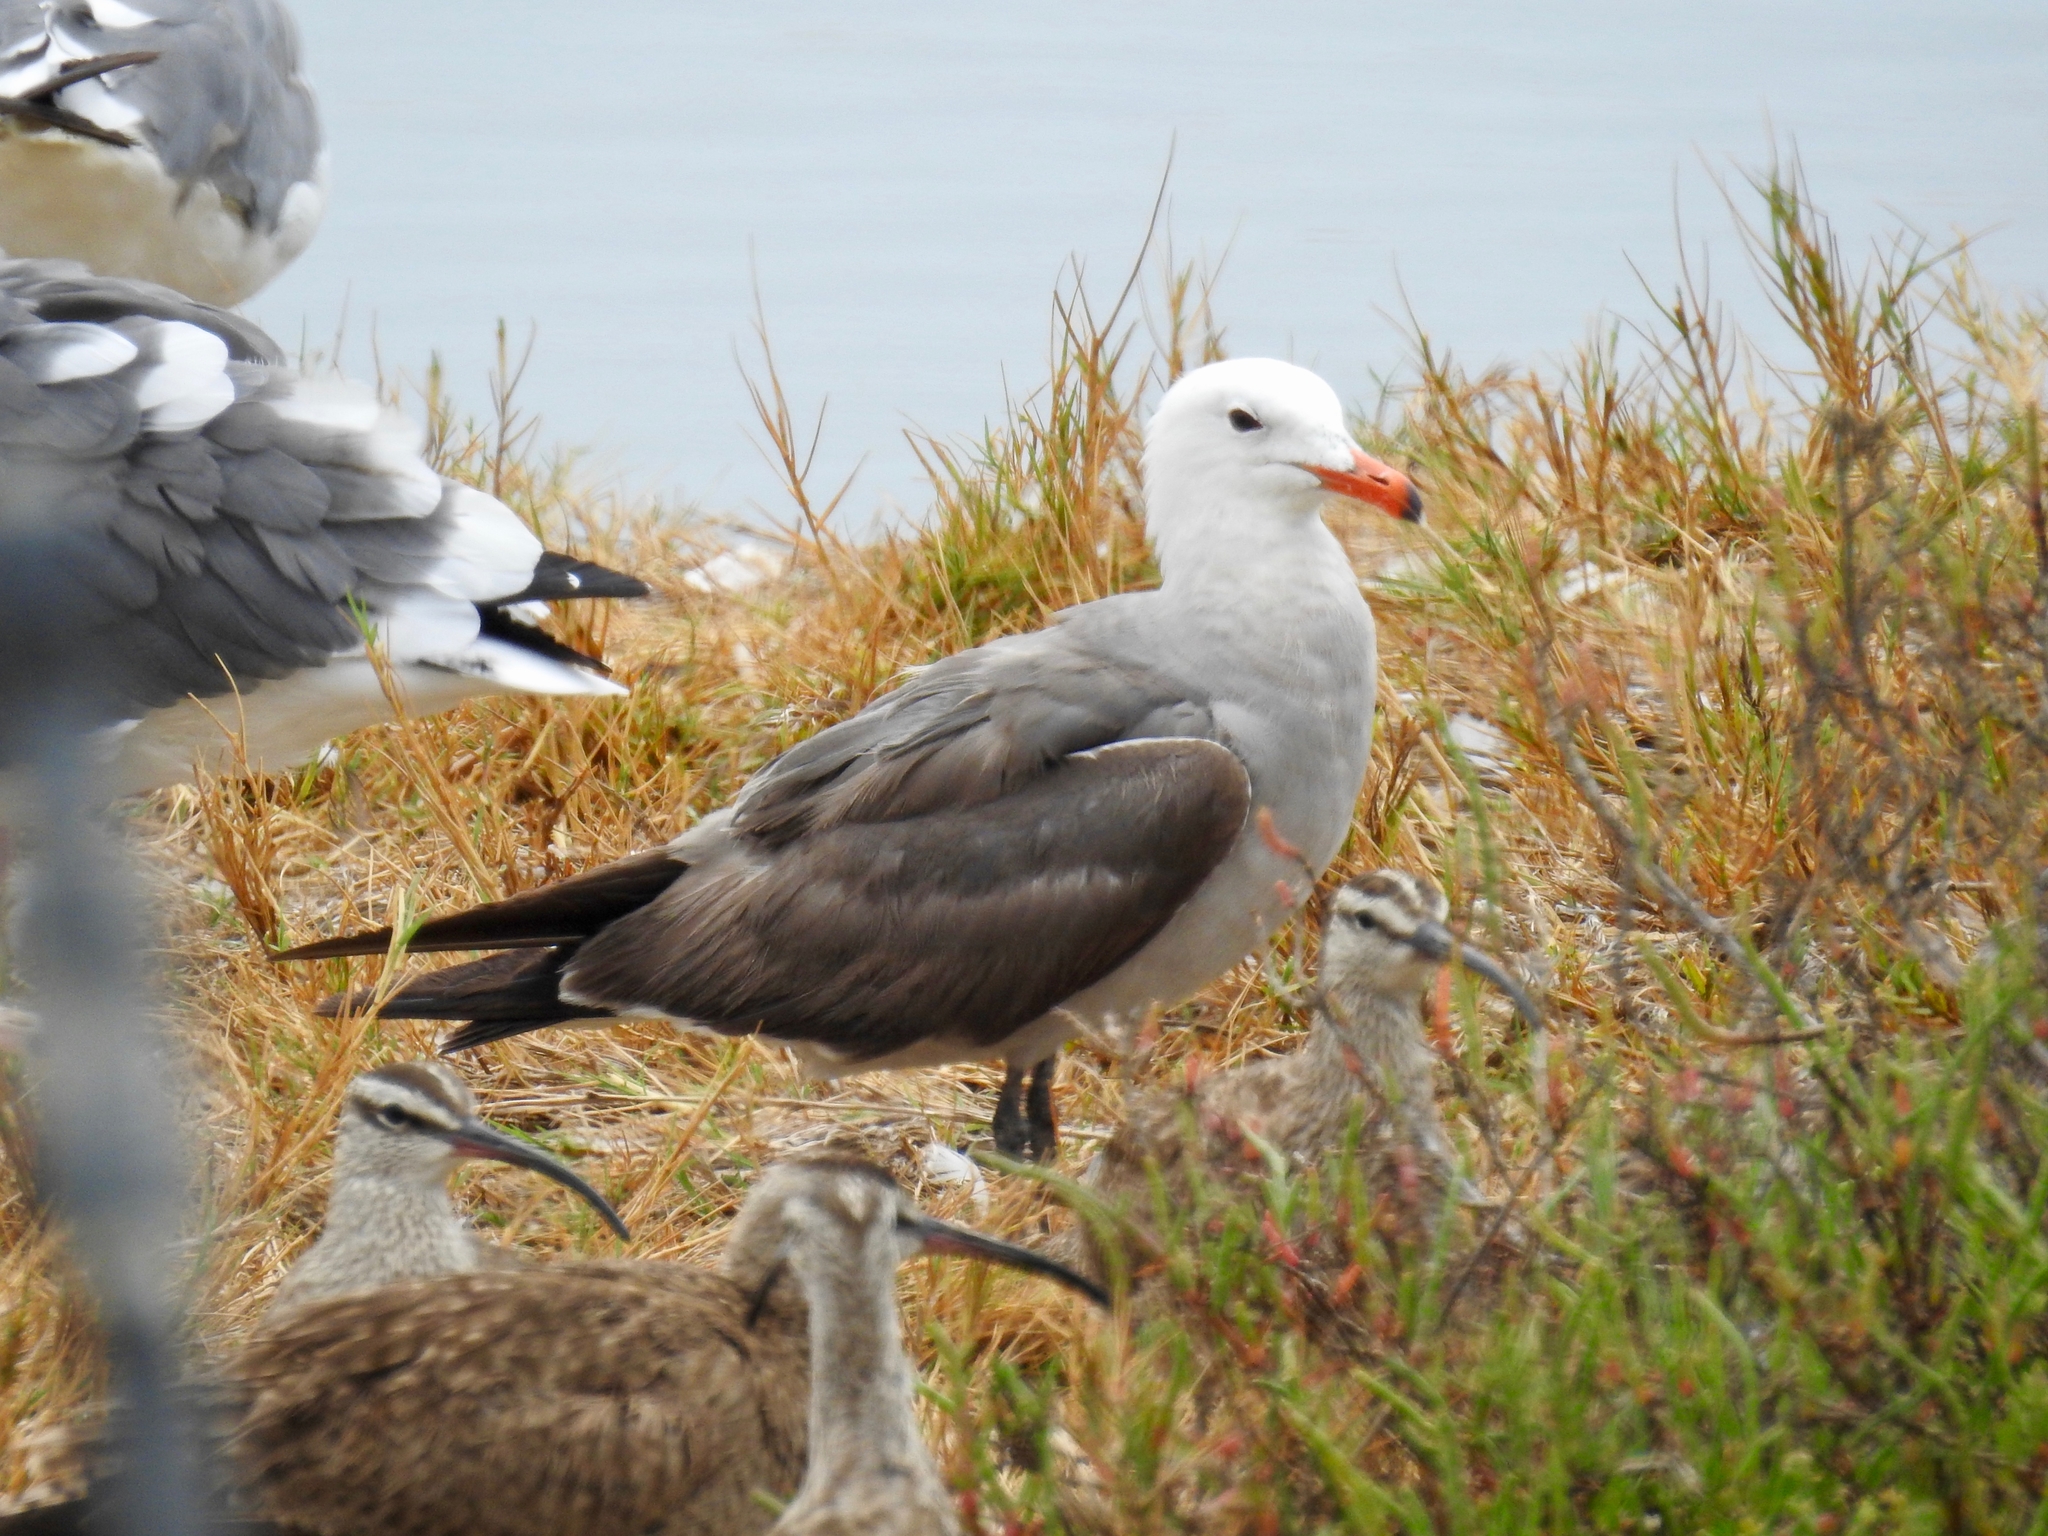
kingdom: Animalia
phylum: Chordata
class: Aves
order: Charadriiformes
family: Laridae
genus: Larus
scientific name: Larus heermanni
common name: Heermann's gull
